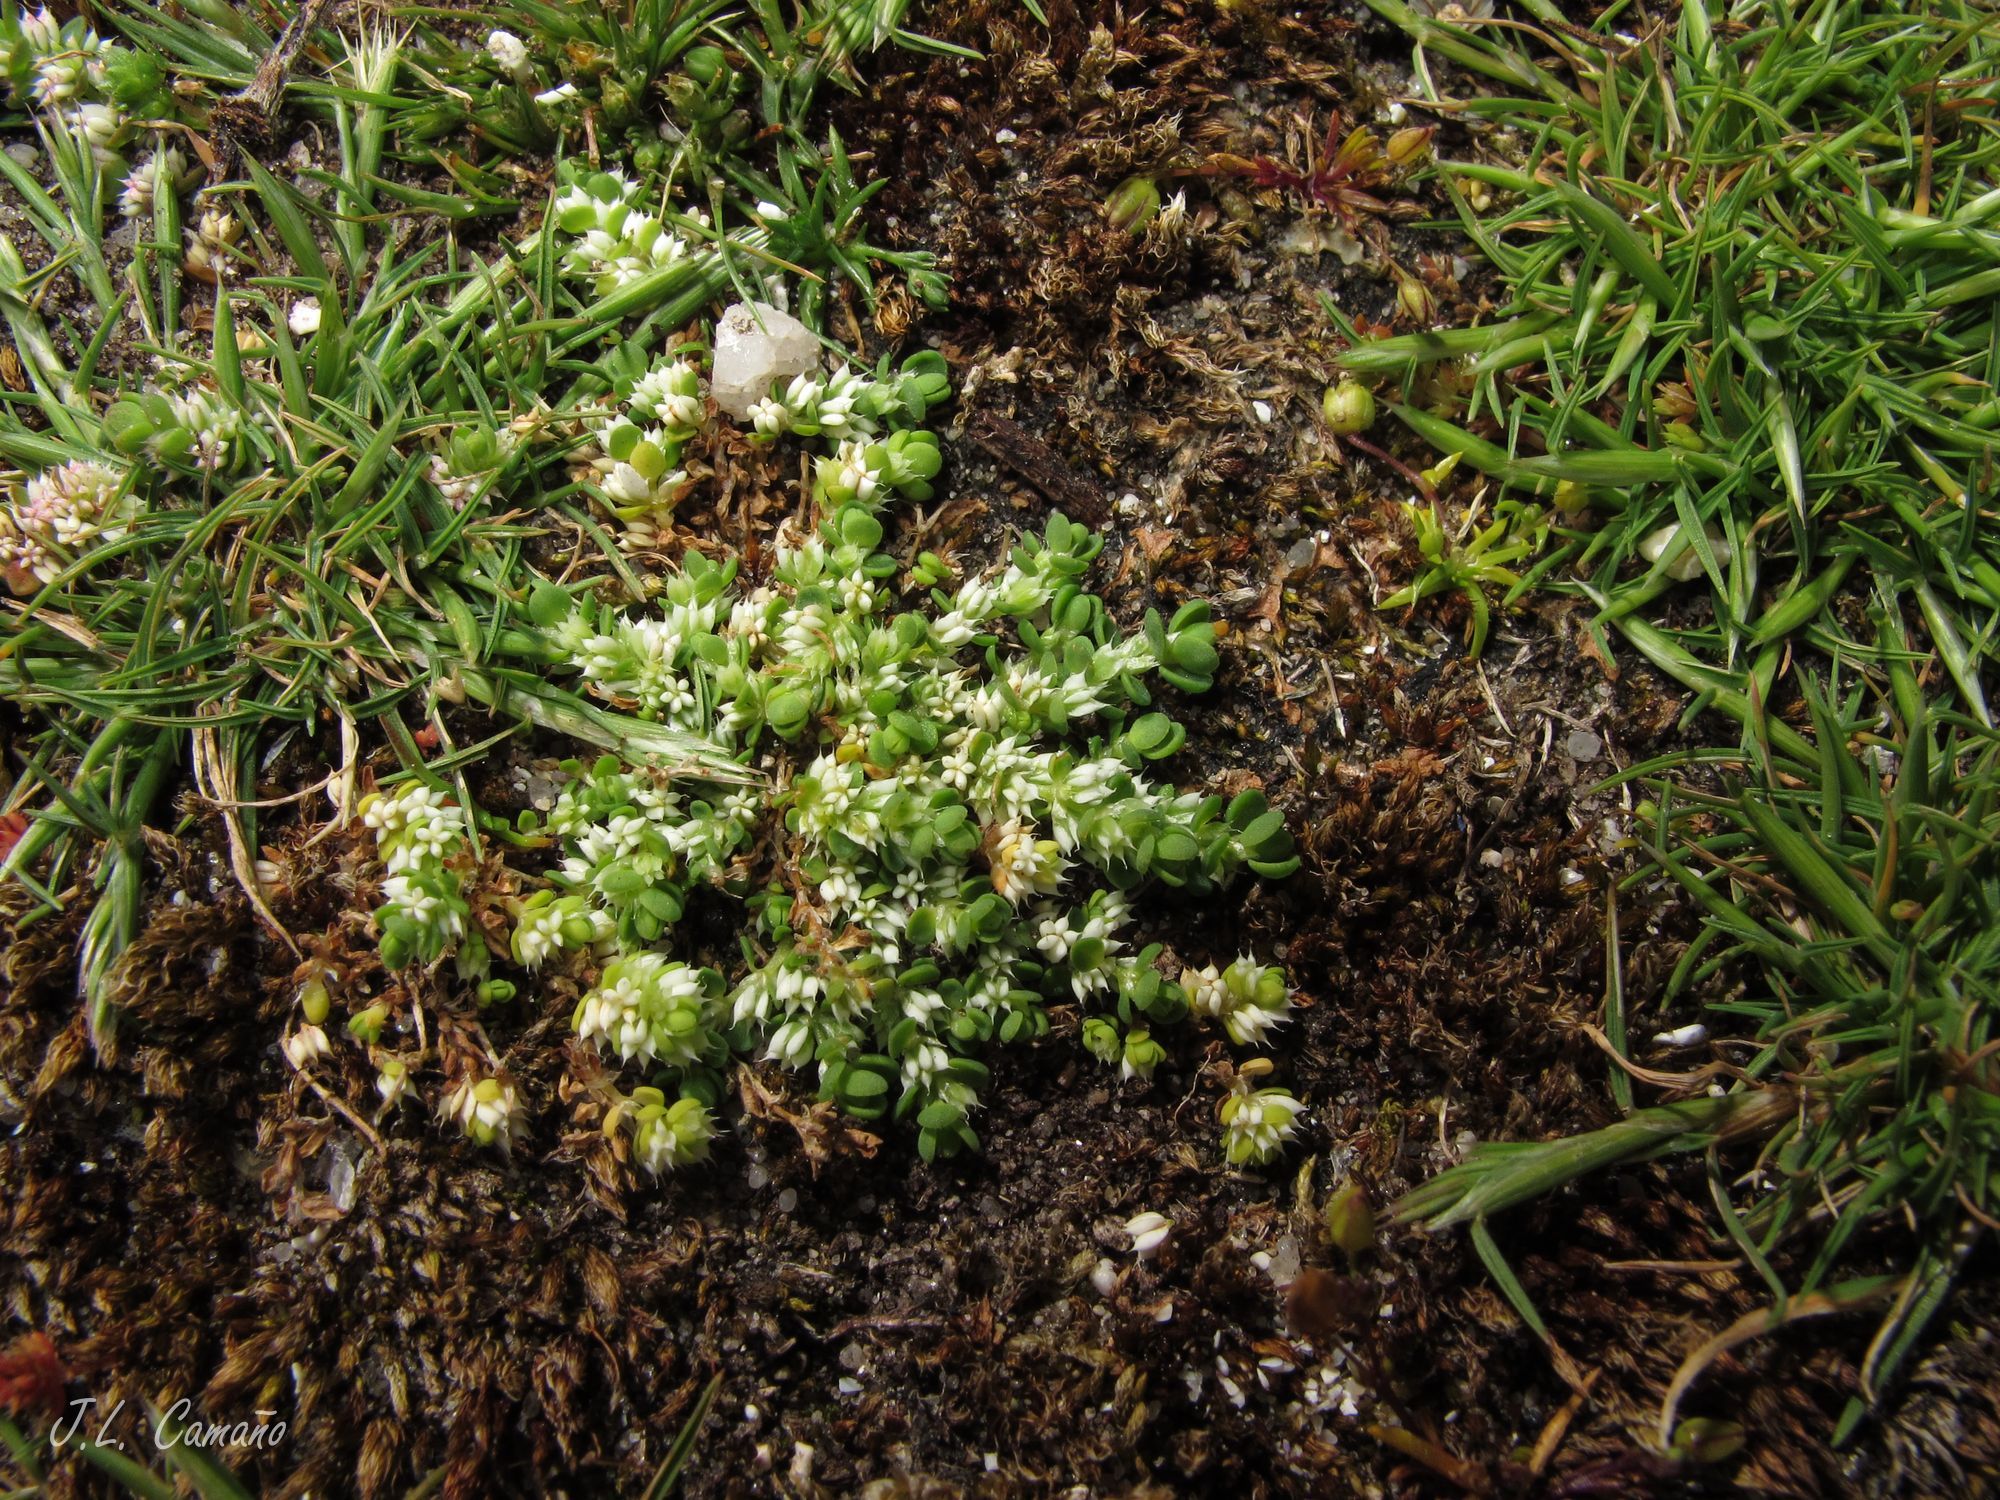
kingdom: Plantae
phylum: Tracheophyta
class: Magnoliopsida
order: Caryophyllales
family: Caryophyllaceae
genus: Illecebrum
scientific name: Illecebrum verticillatum
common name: Coral necklace
